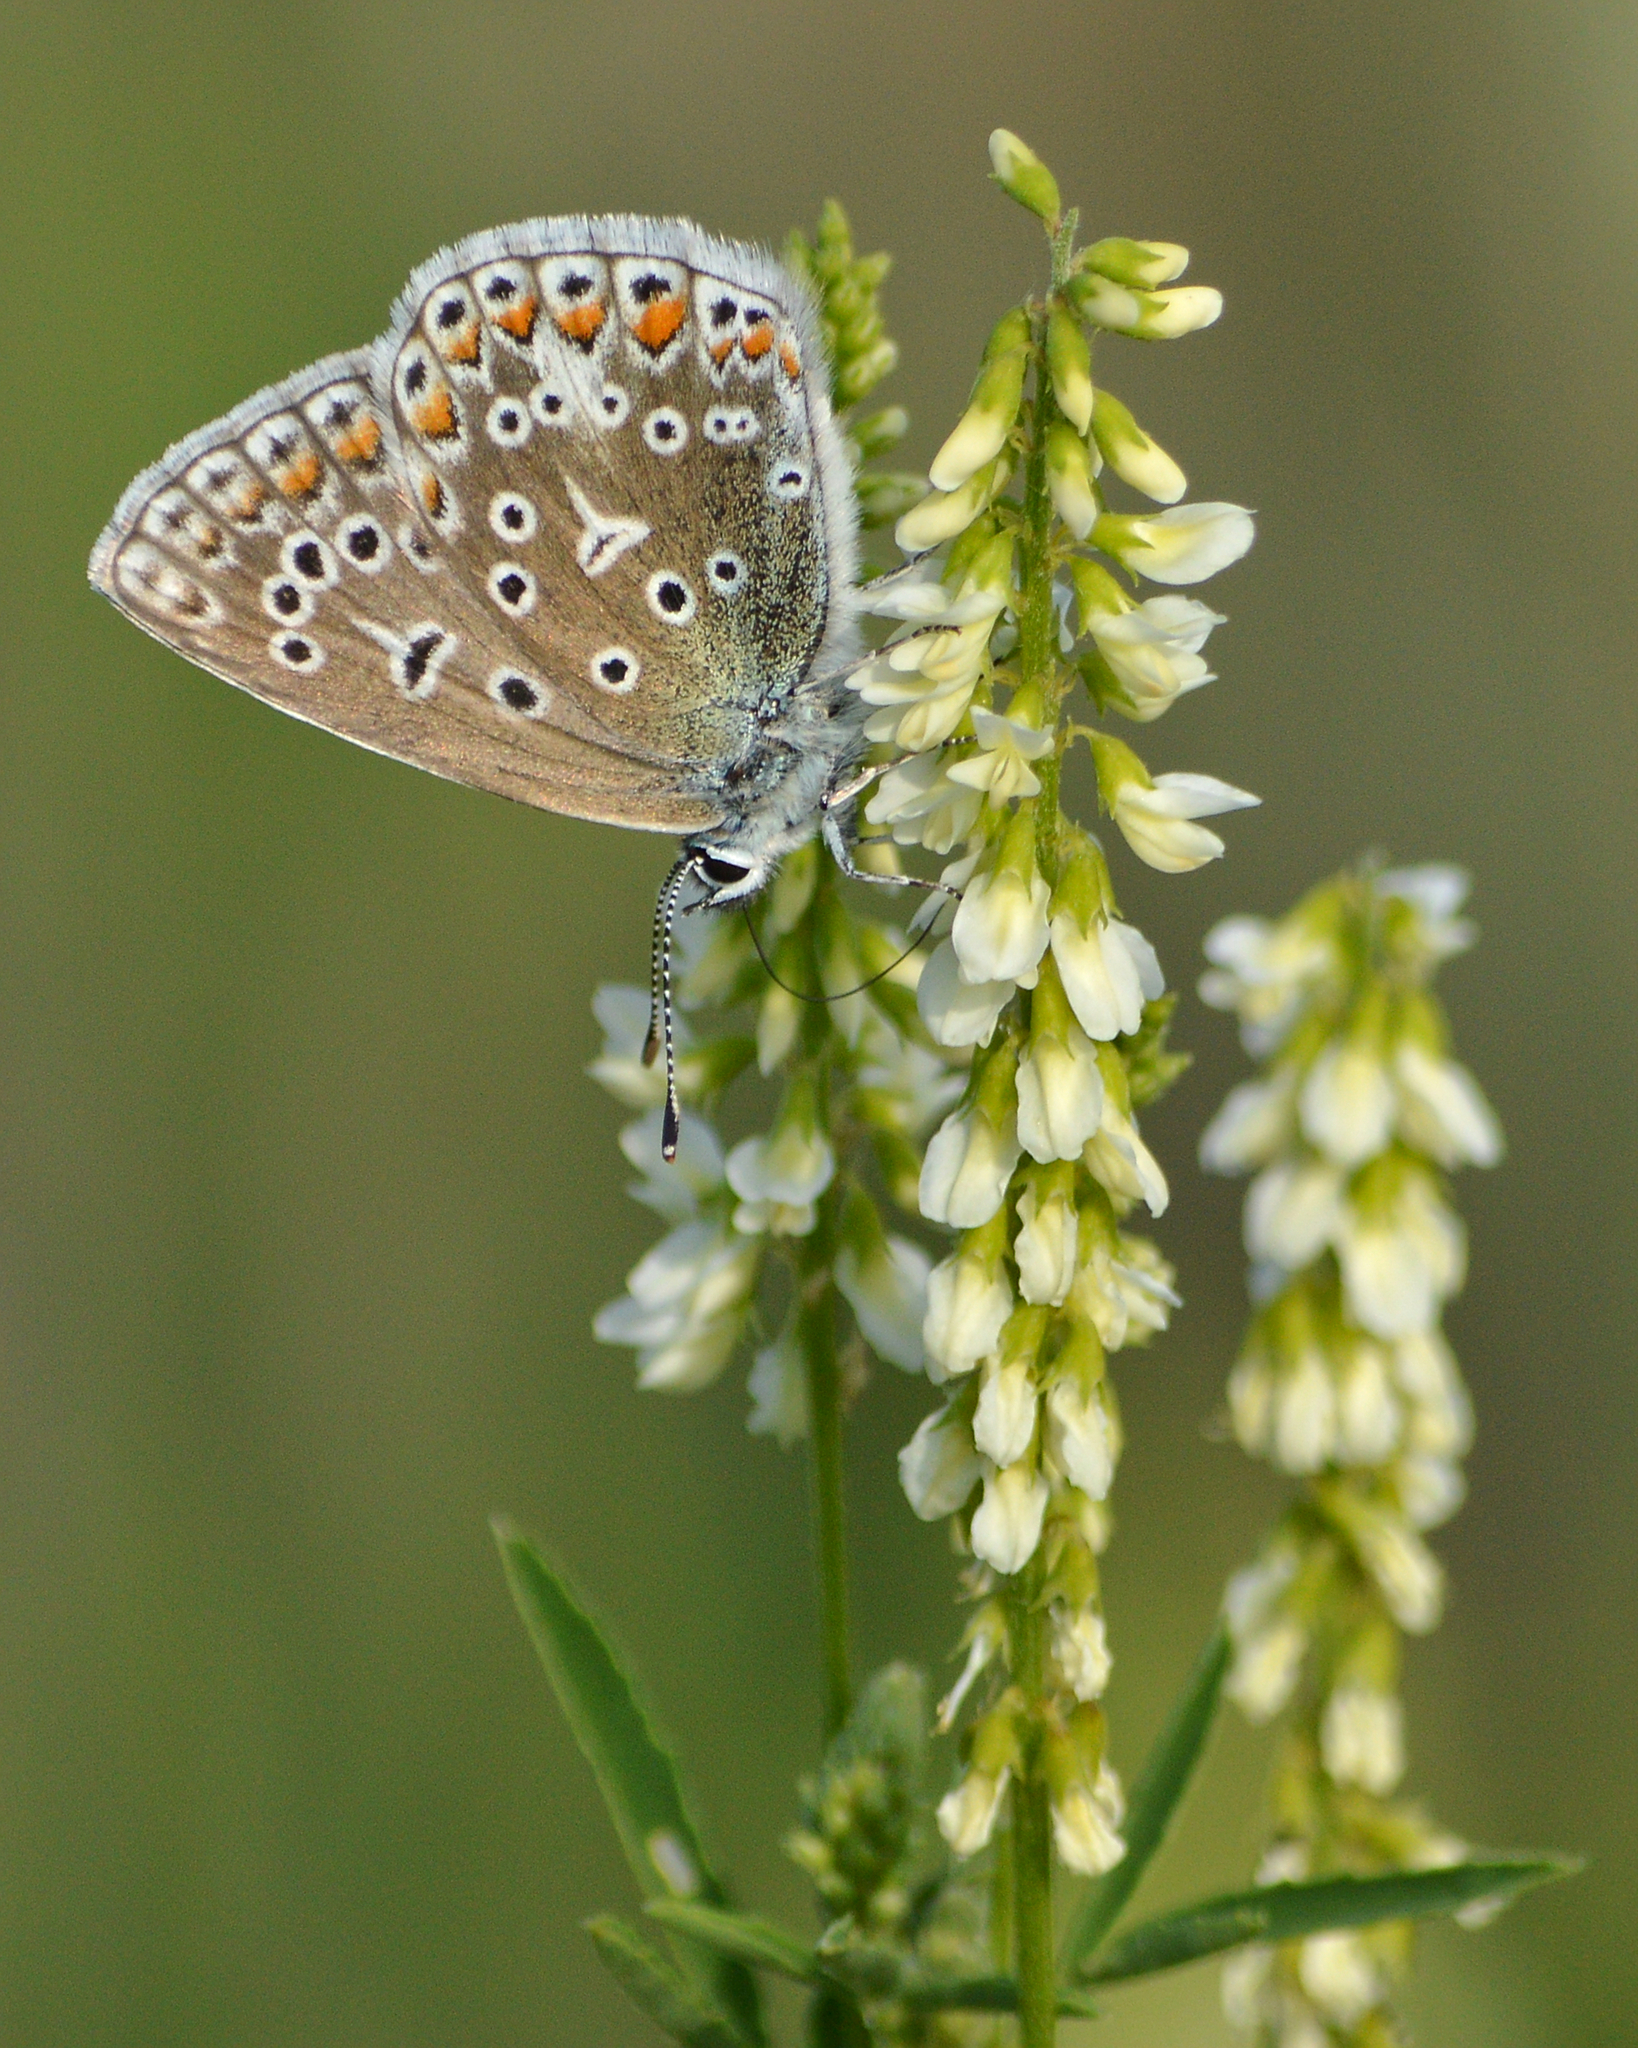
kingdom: Plantae
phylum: Tracheophyta
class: Magnoliopsida
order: Fabales
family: Fabaceae
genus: Melilotus
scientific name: Melilotus albus
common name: White melilot
